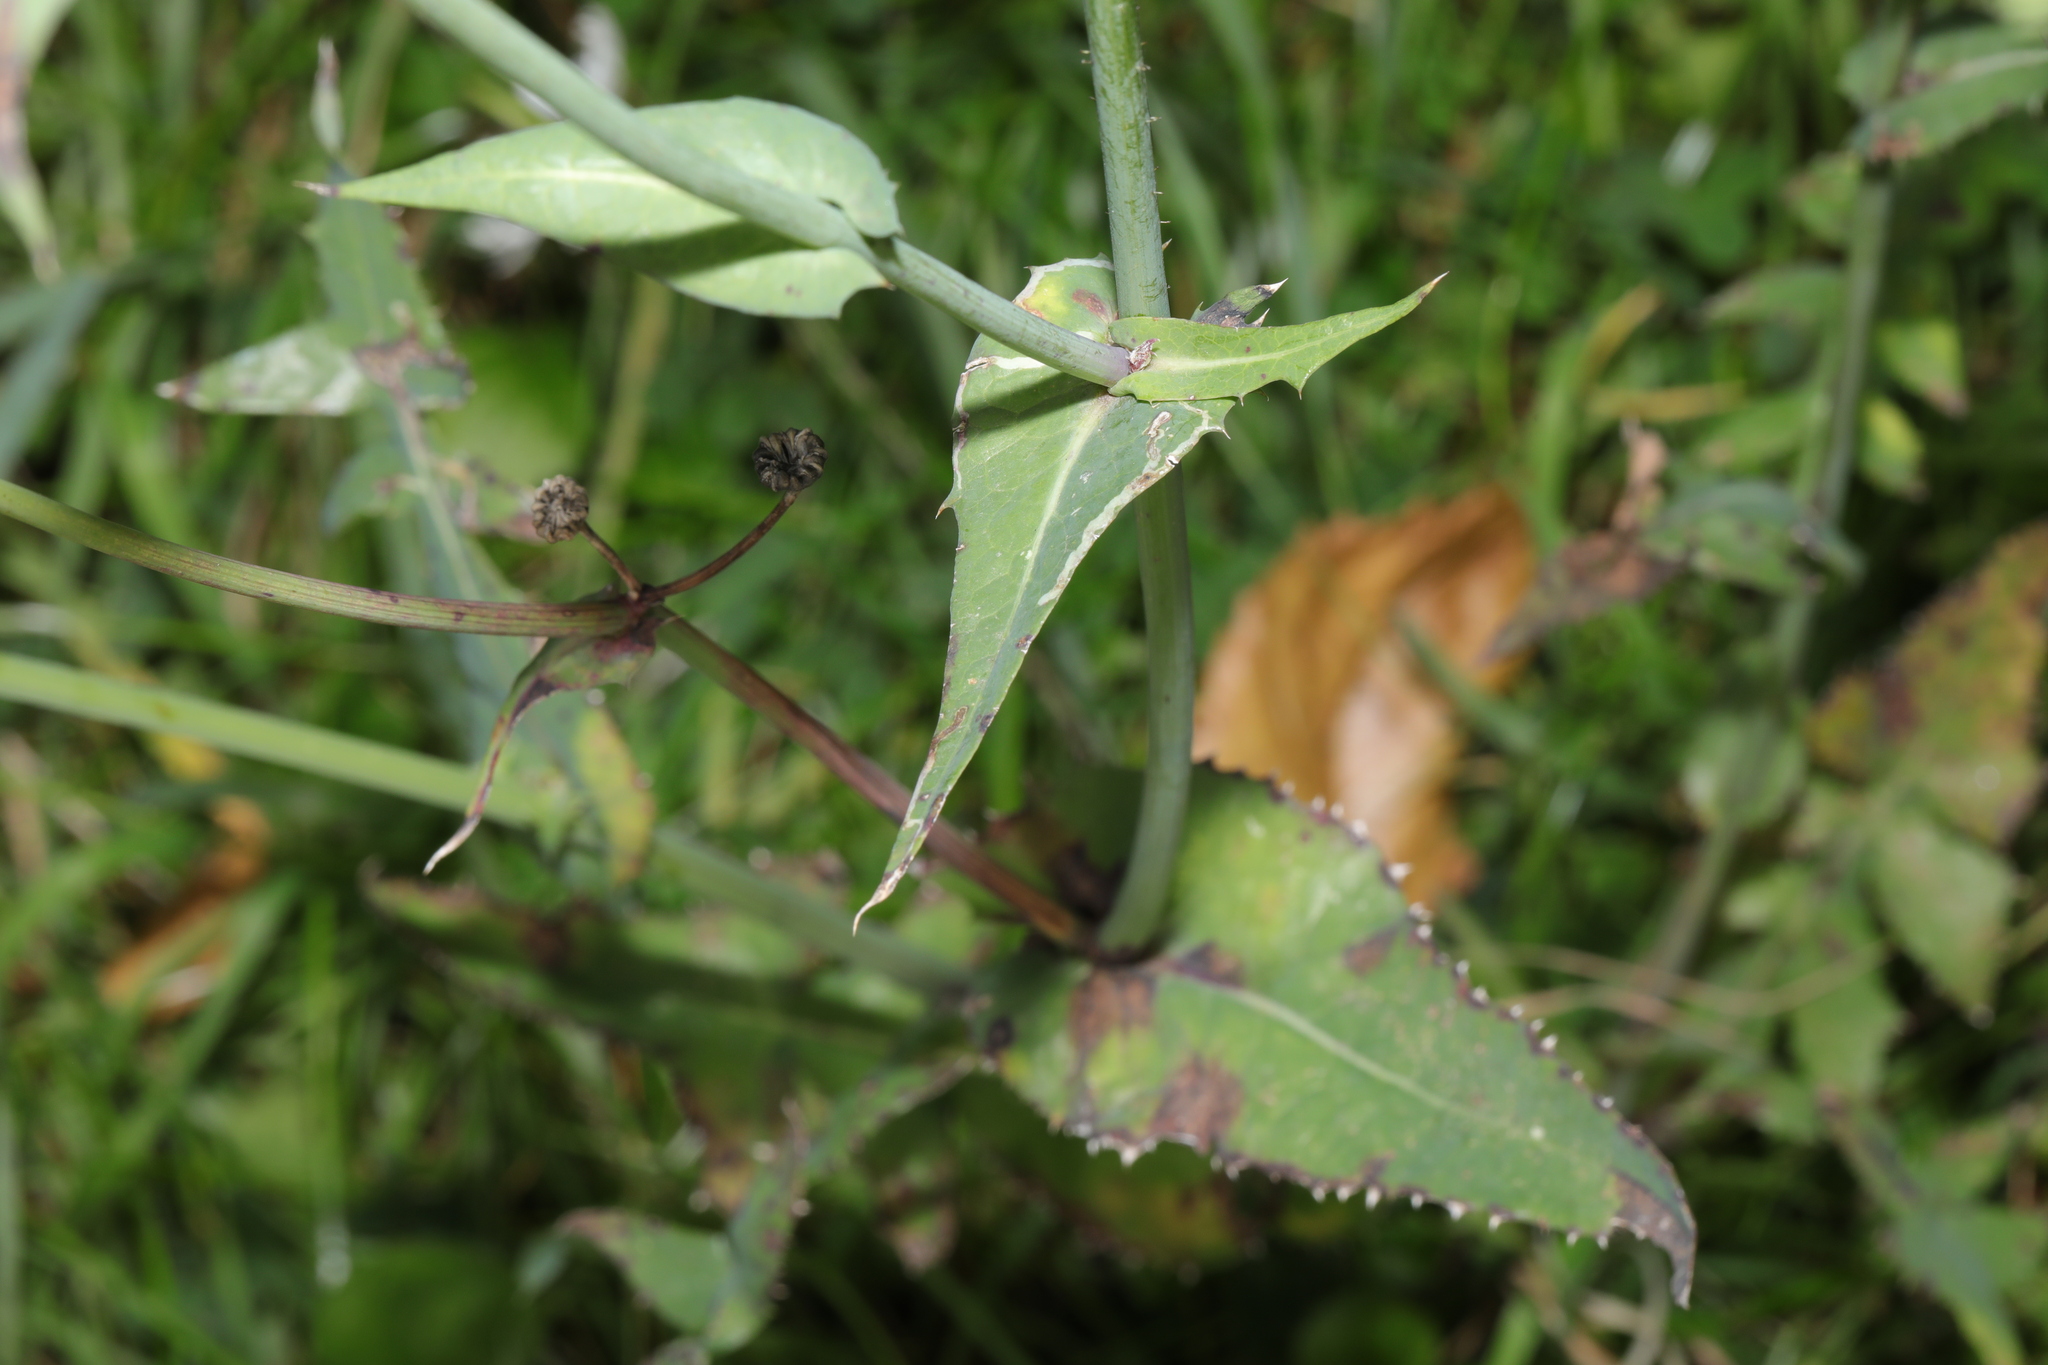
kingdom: Plantae
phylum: Tracheophyta
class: Magnoliopsida
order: Asterales
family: Asteraceae
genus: Sonchus
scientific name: Sonchus oleraceus
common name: Common sowthistle
